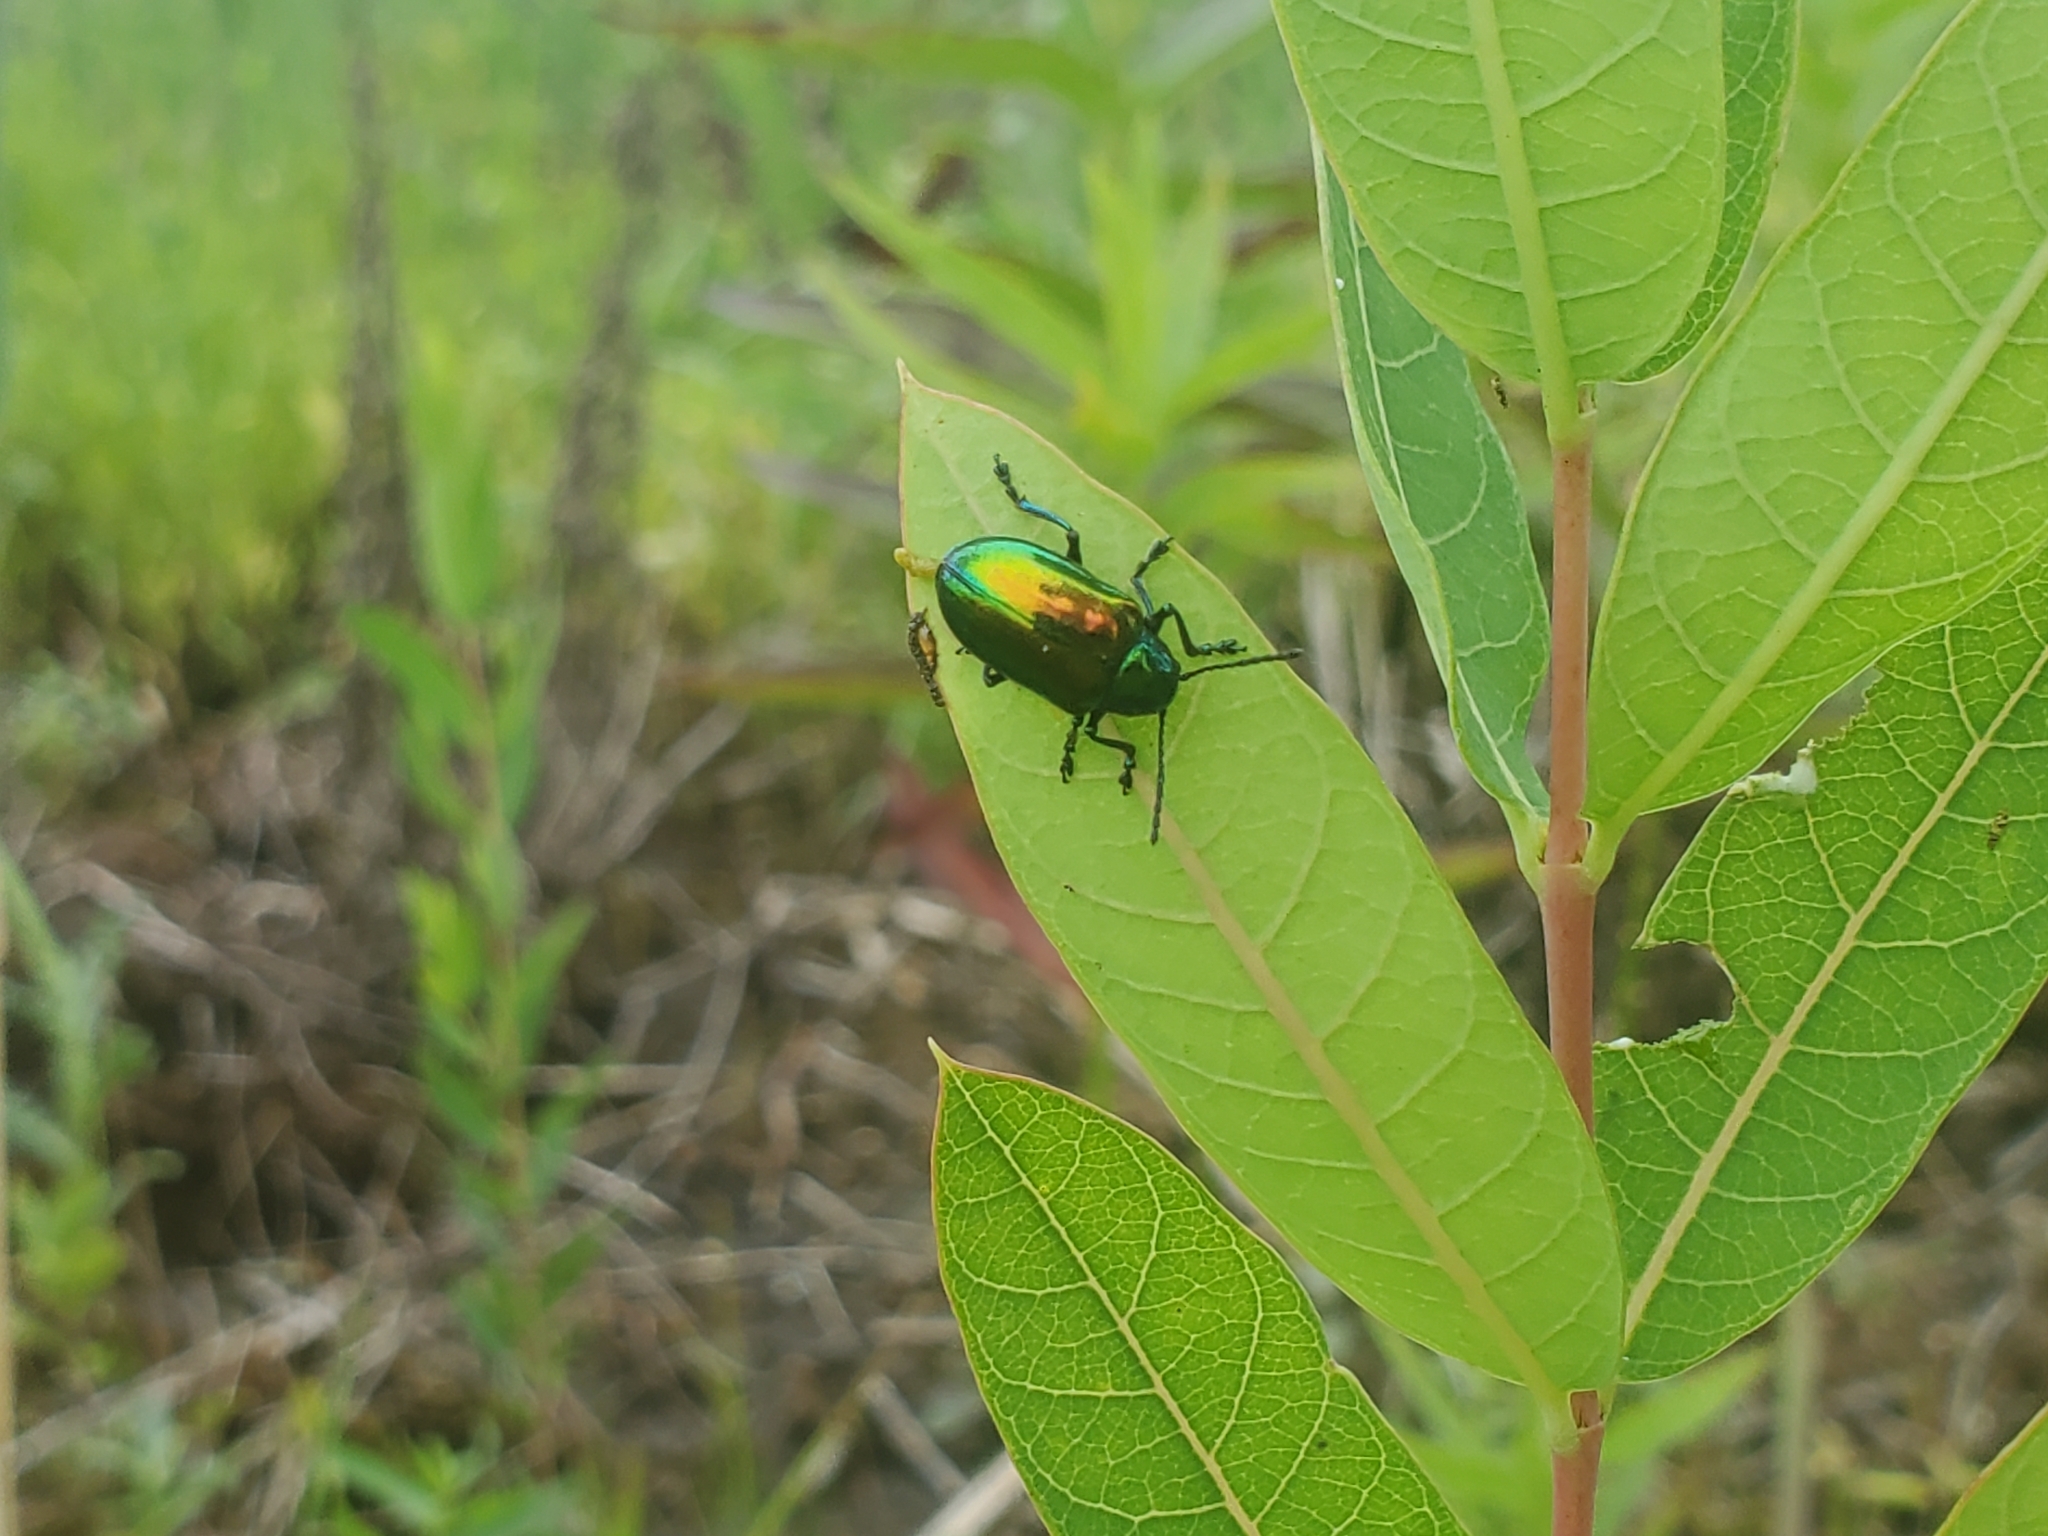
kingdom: Animalia
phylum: Arthropoda
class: Insecta
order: Coleoptera
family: Chrysomelidae
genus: Chrysochus
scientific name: Chrysochus auratus
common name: Dogbane leaf beetle
